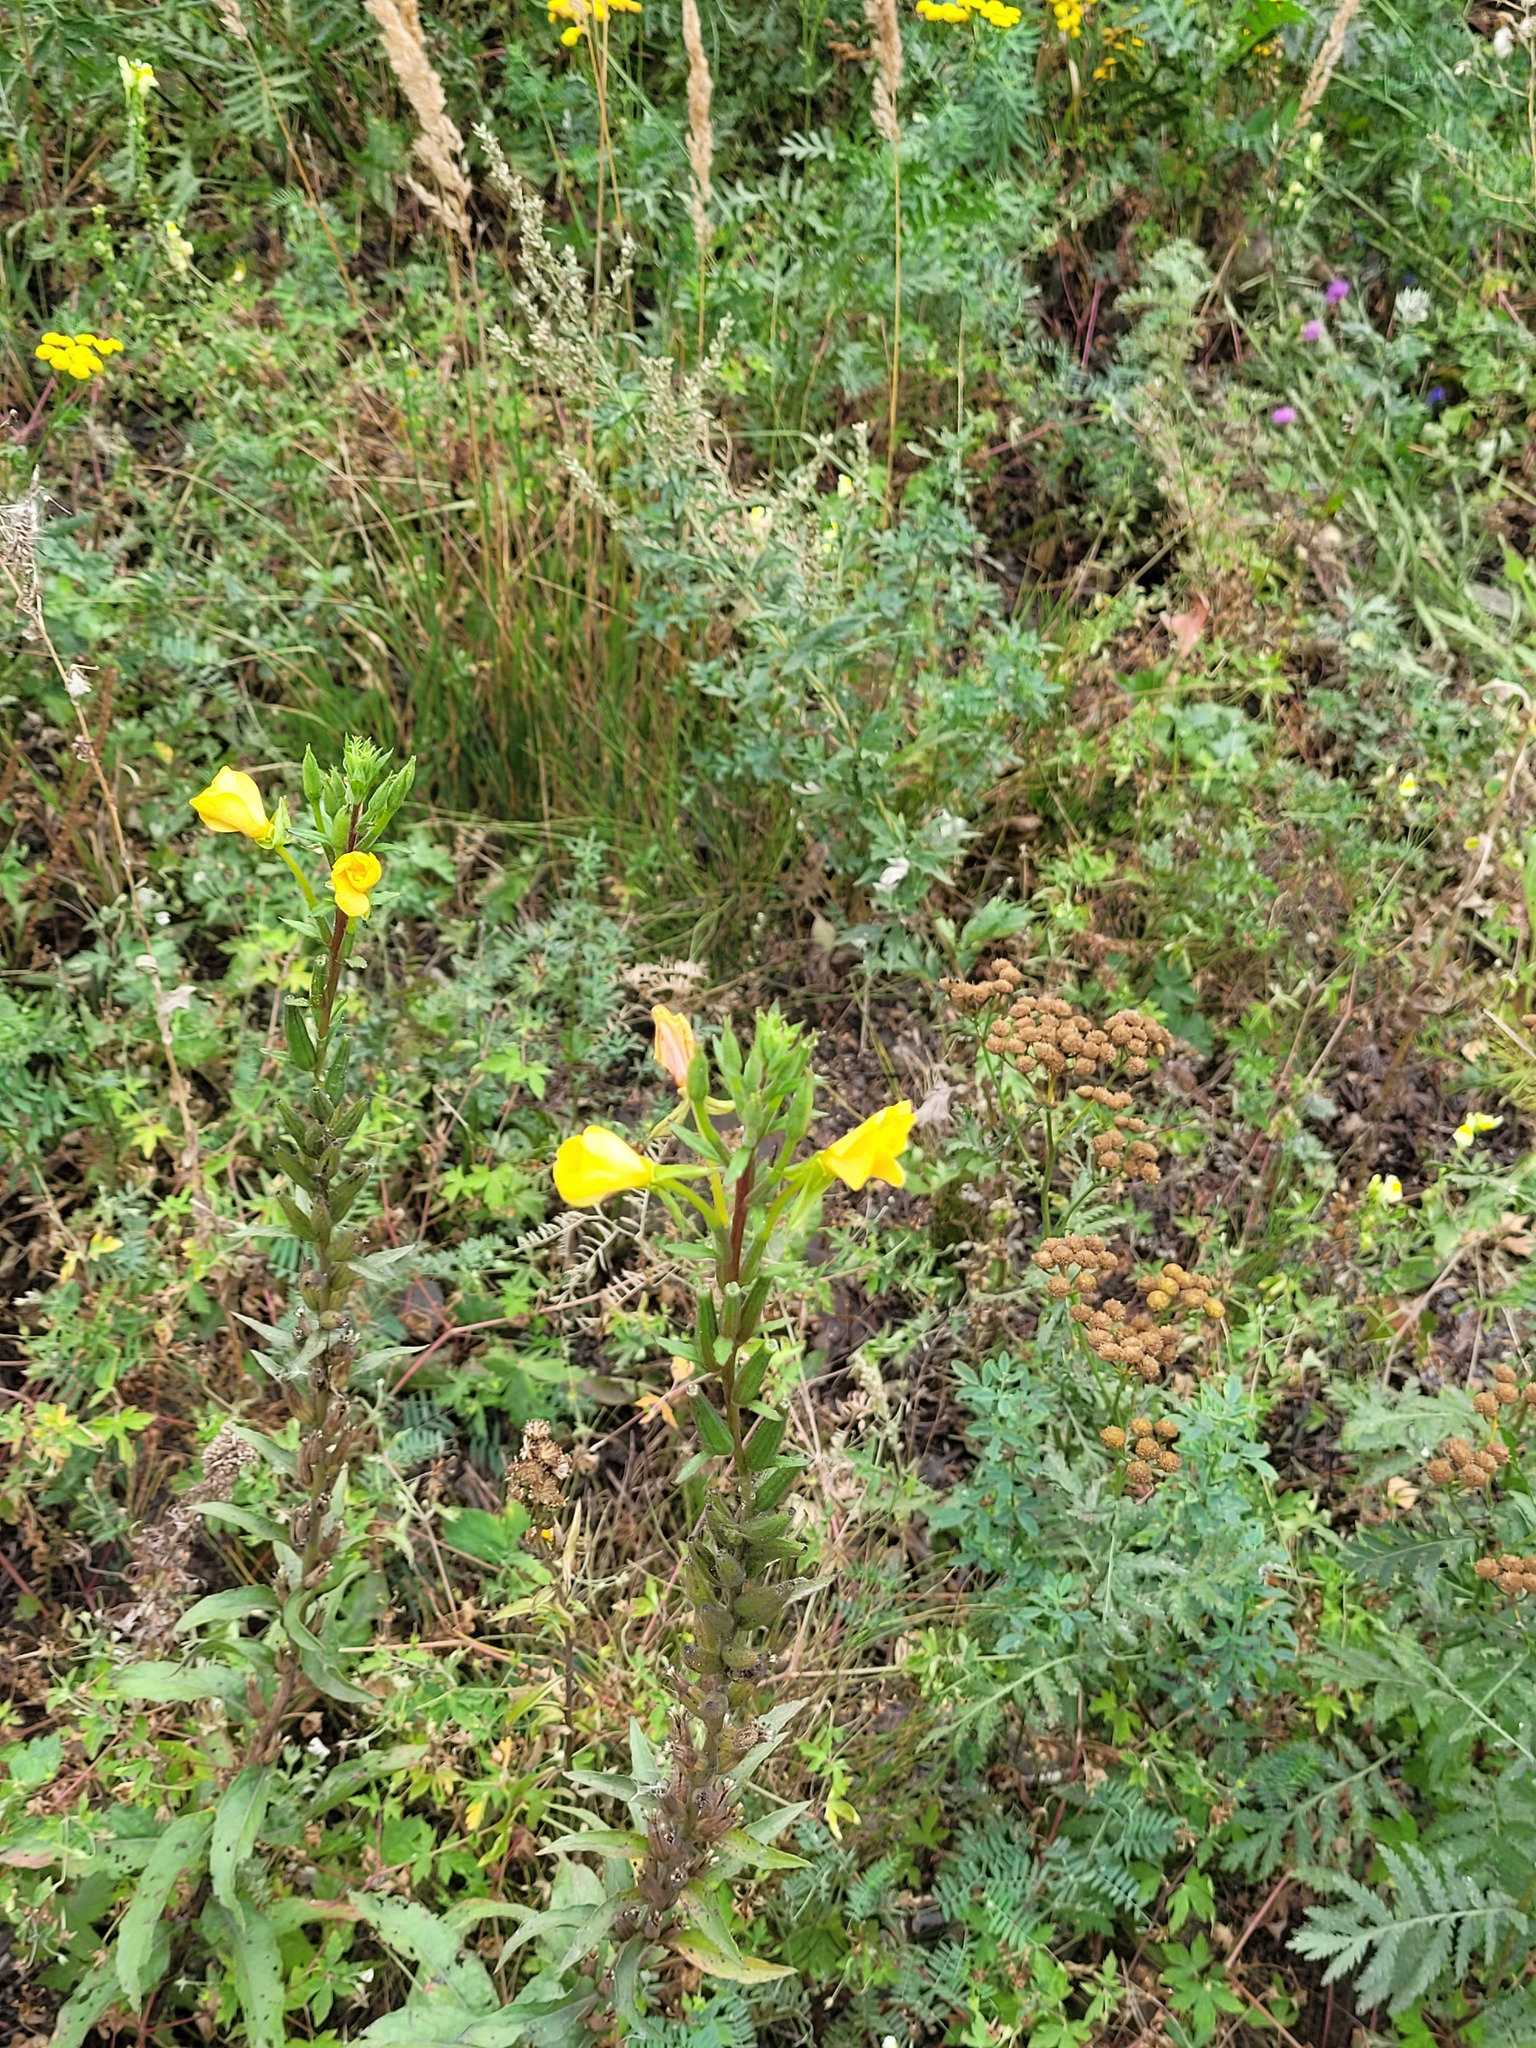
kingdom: Plantae
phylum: Tracheophyta
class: Magnoliopsida
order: Myrtales
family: Onagraceae
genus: Oenothera
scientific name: Oenothera rubricaulis
